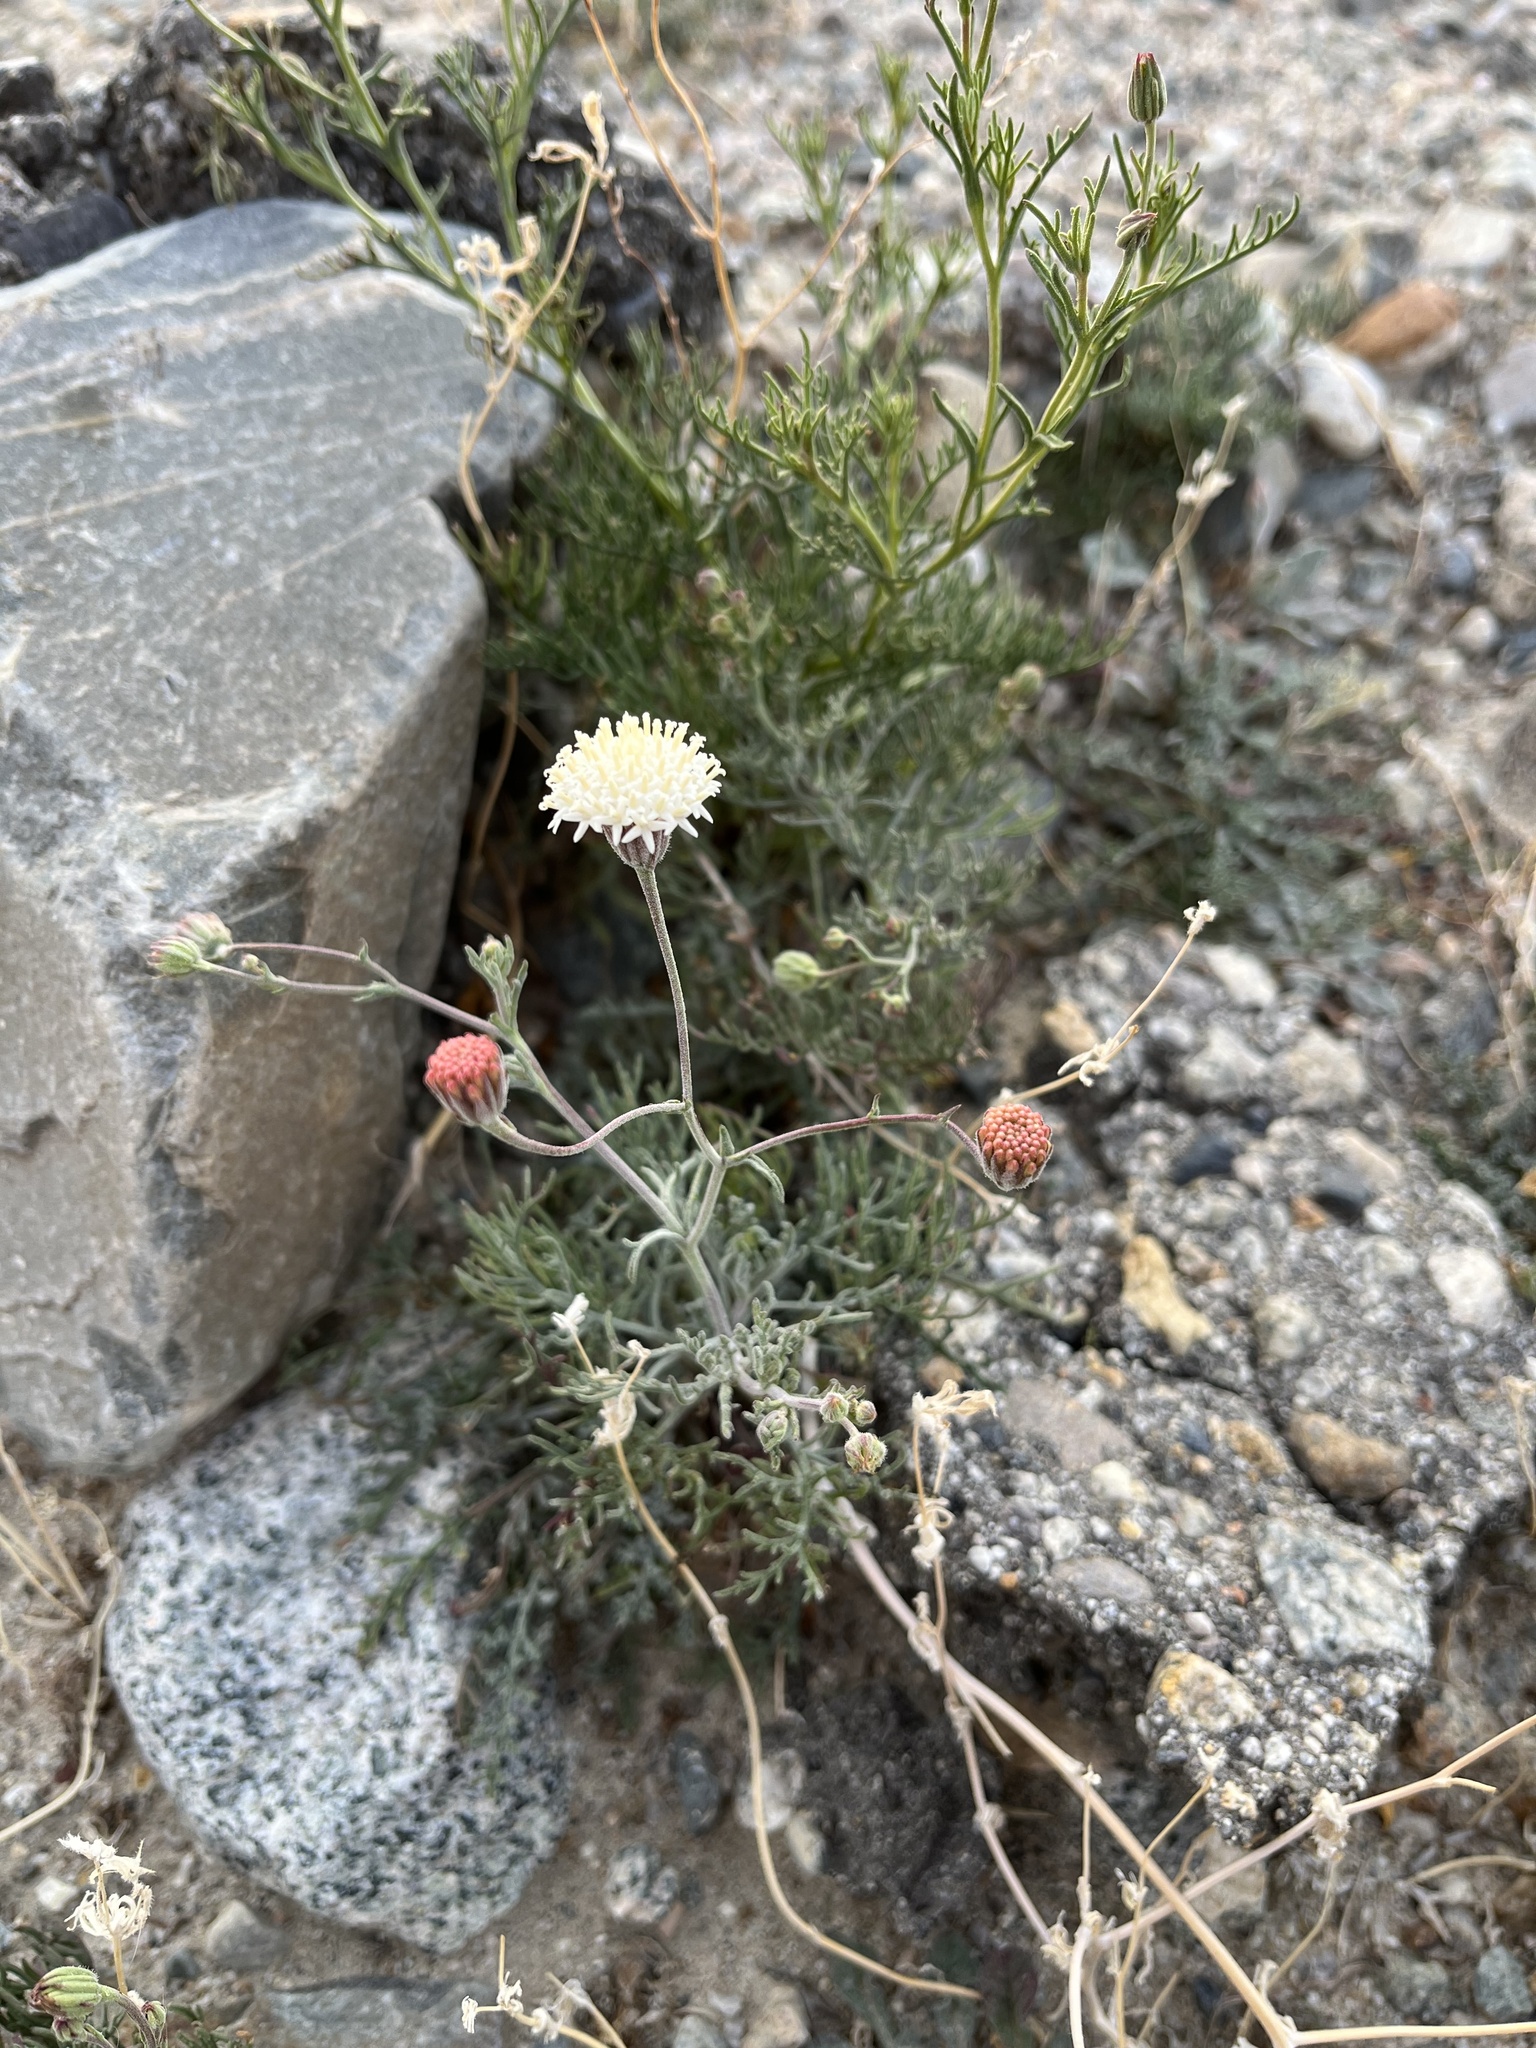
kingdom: Plantae
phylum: Tracheophyta
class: Magnoliopsida
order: Asterales
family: Asteraceae
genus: Chaenactis
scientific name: Chaenactis carphoclinia
